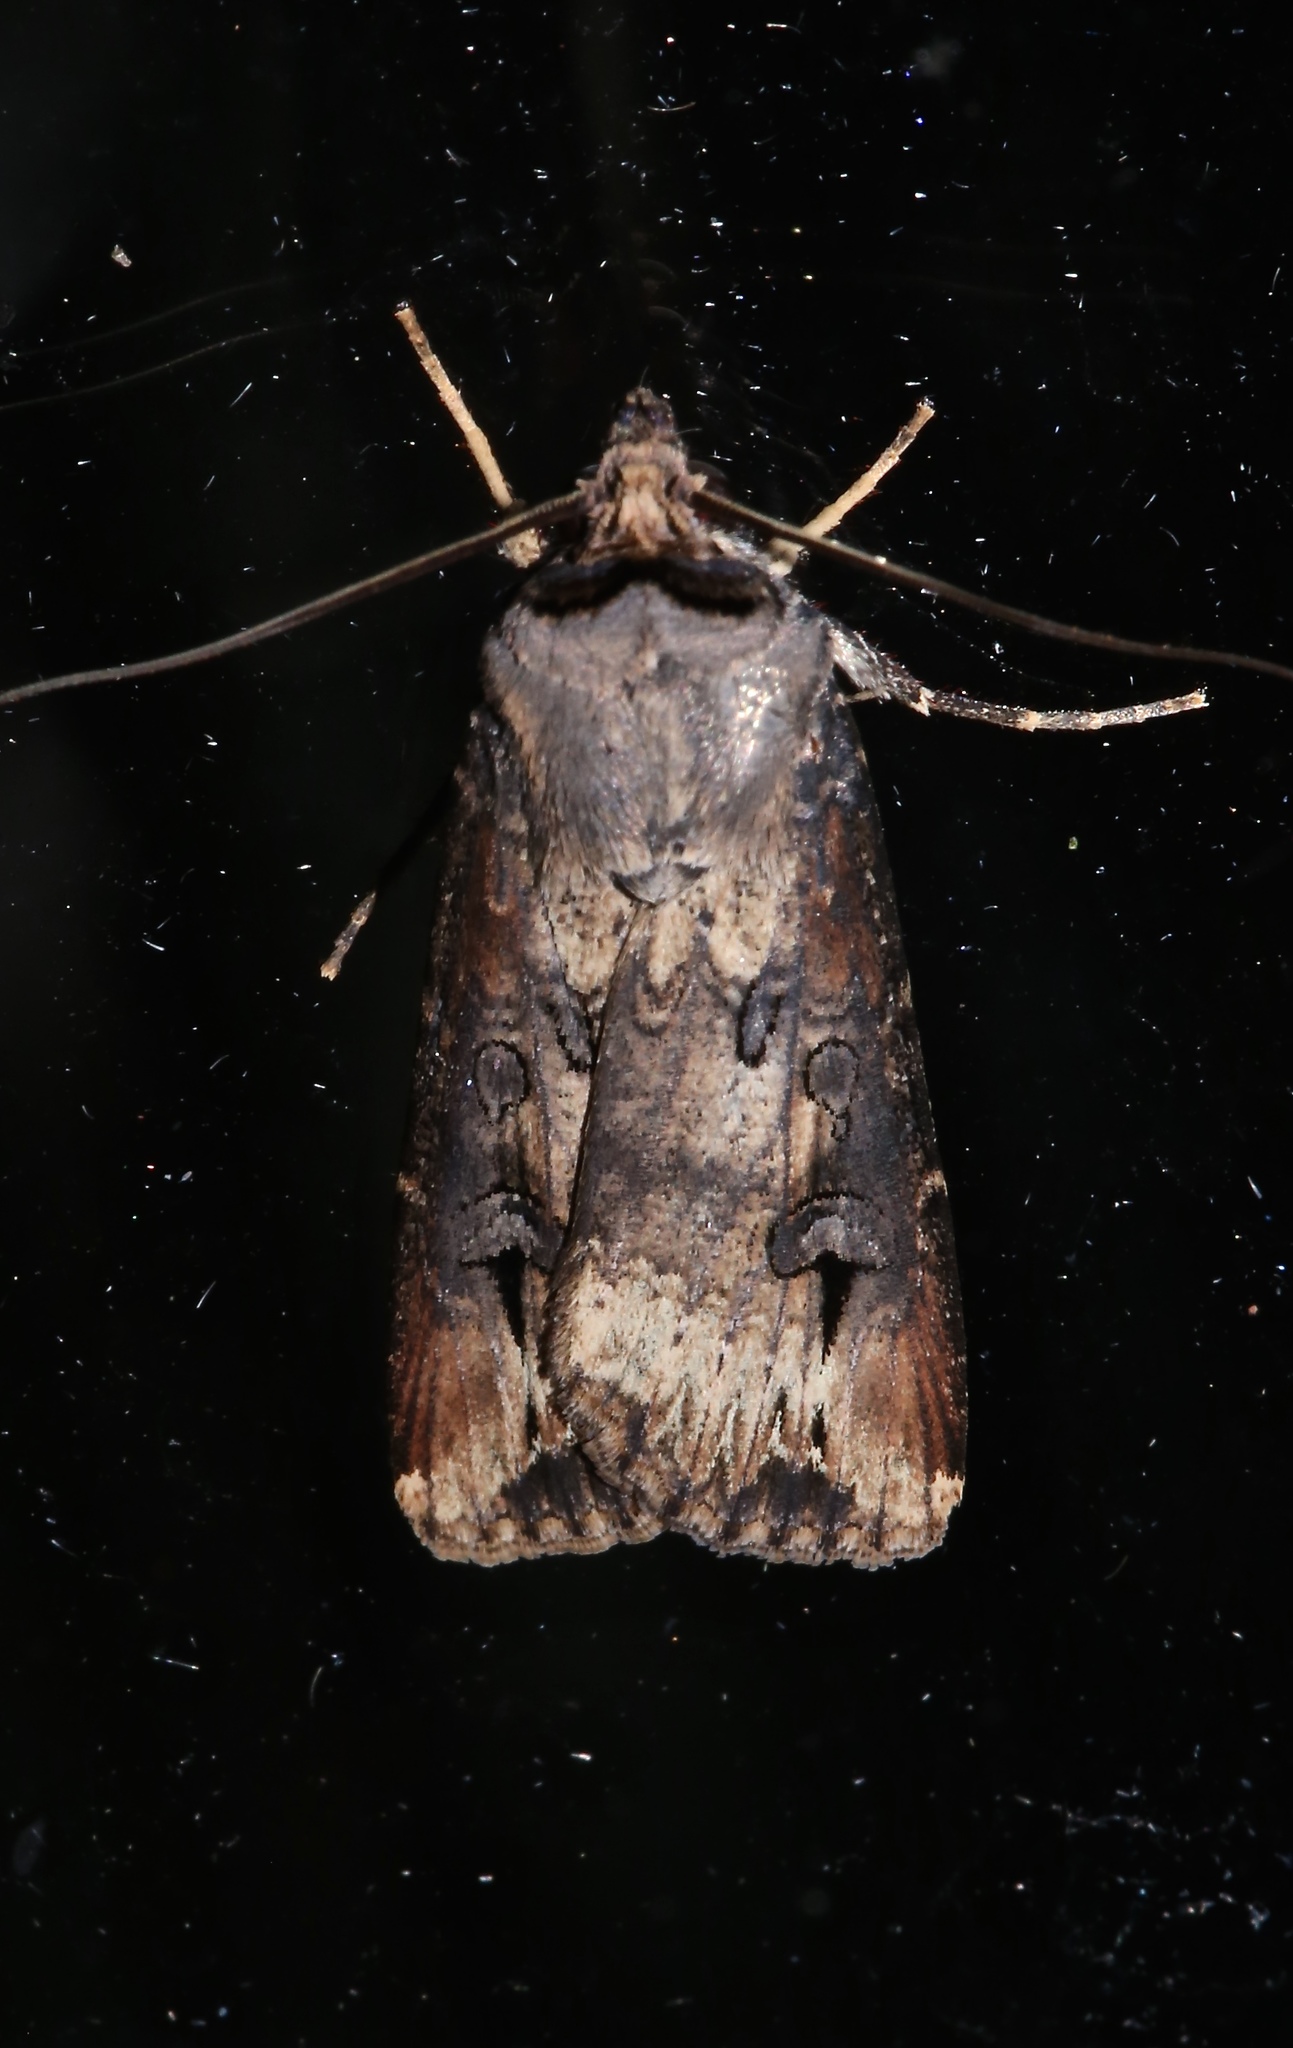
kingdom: Animalia
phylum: Arthropoda
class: Insecta
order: Lepidoptera
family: Noctuidae
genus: Agrotis
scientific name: Agrotis ipsilon
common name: Dark sword-grass
